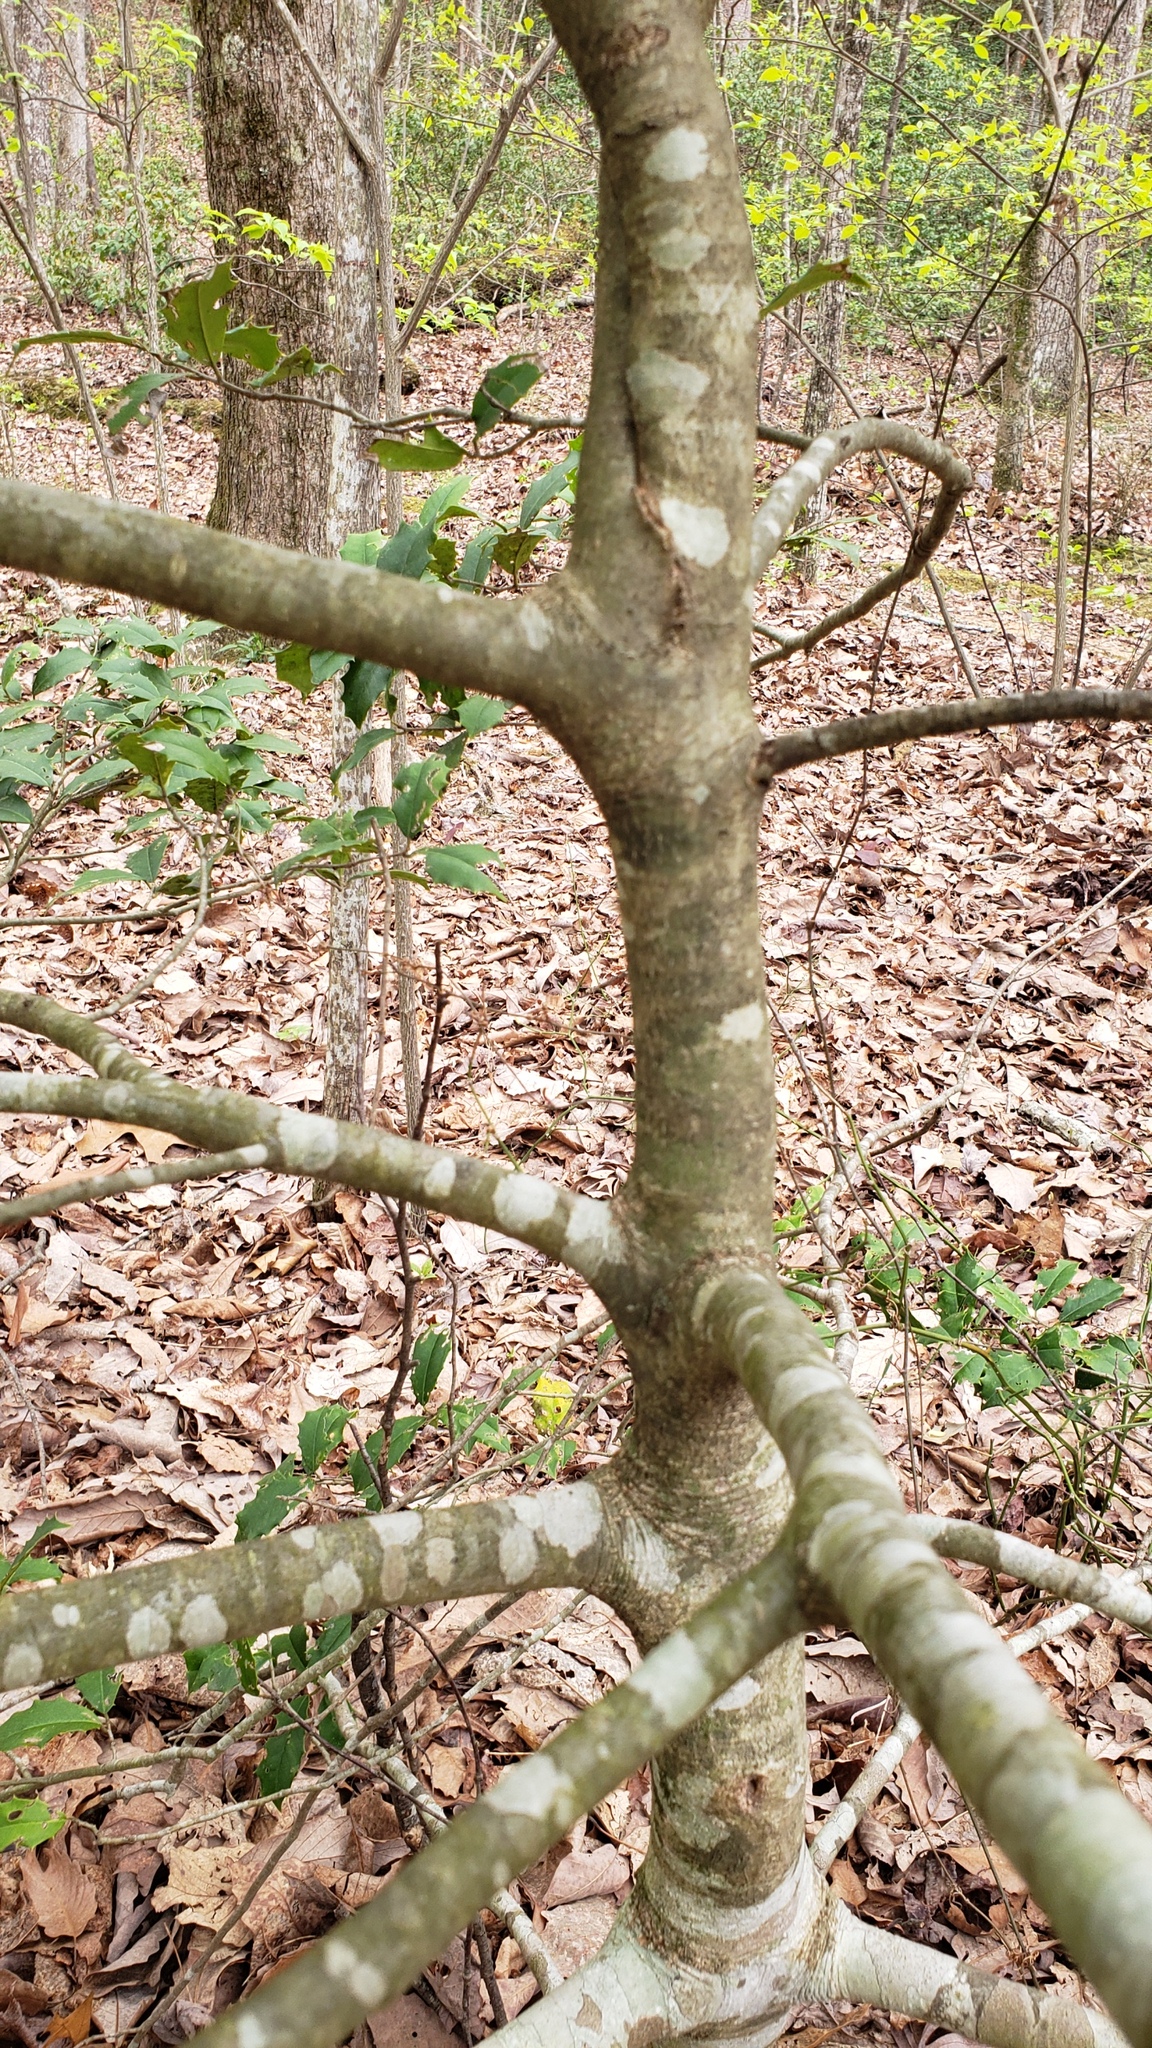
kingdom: Plantae
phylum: Tracheophyta
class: Magnoliopsida
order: Aquifoliales
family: Aquifoliaceae
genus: Ilex
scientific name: Ilex opaca
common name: American holly
